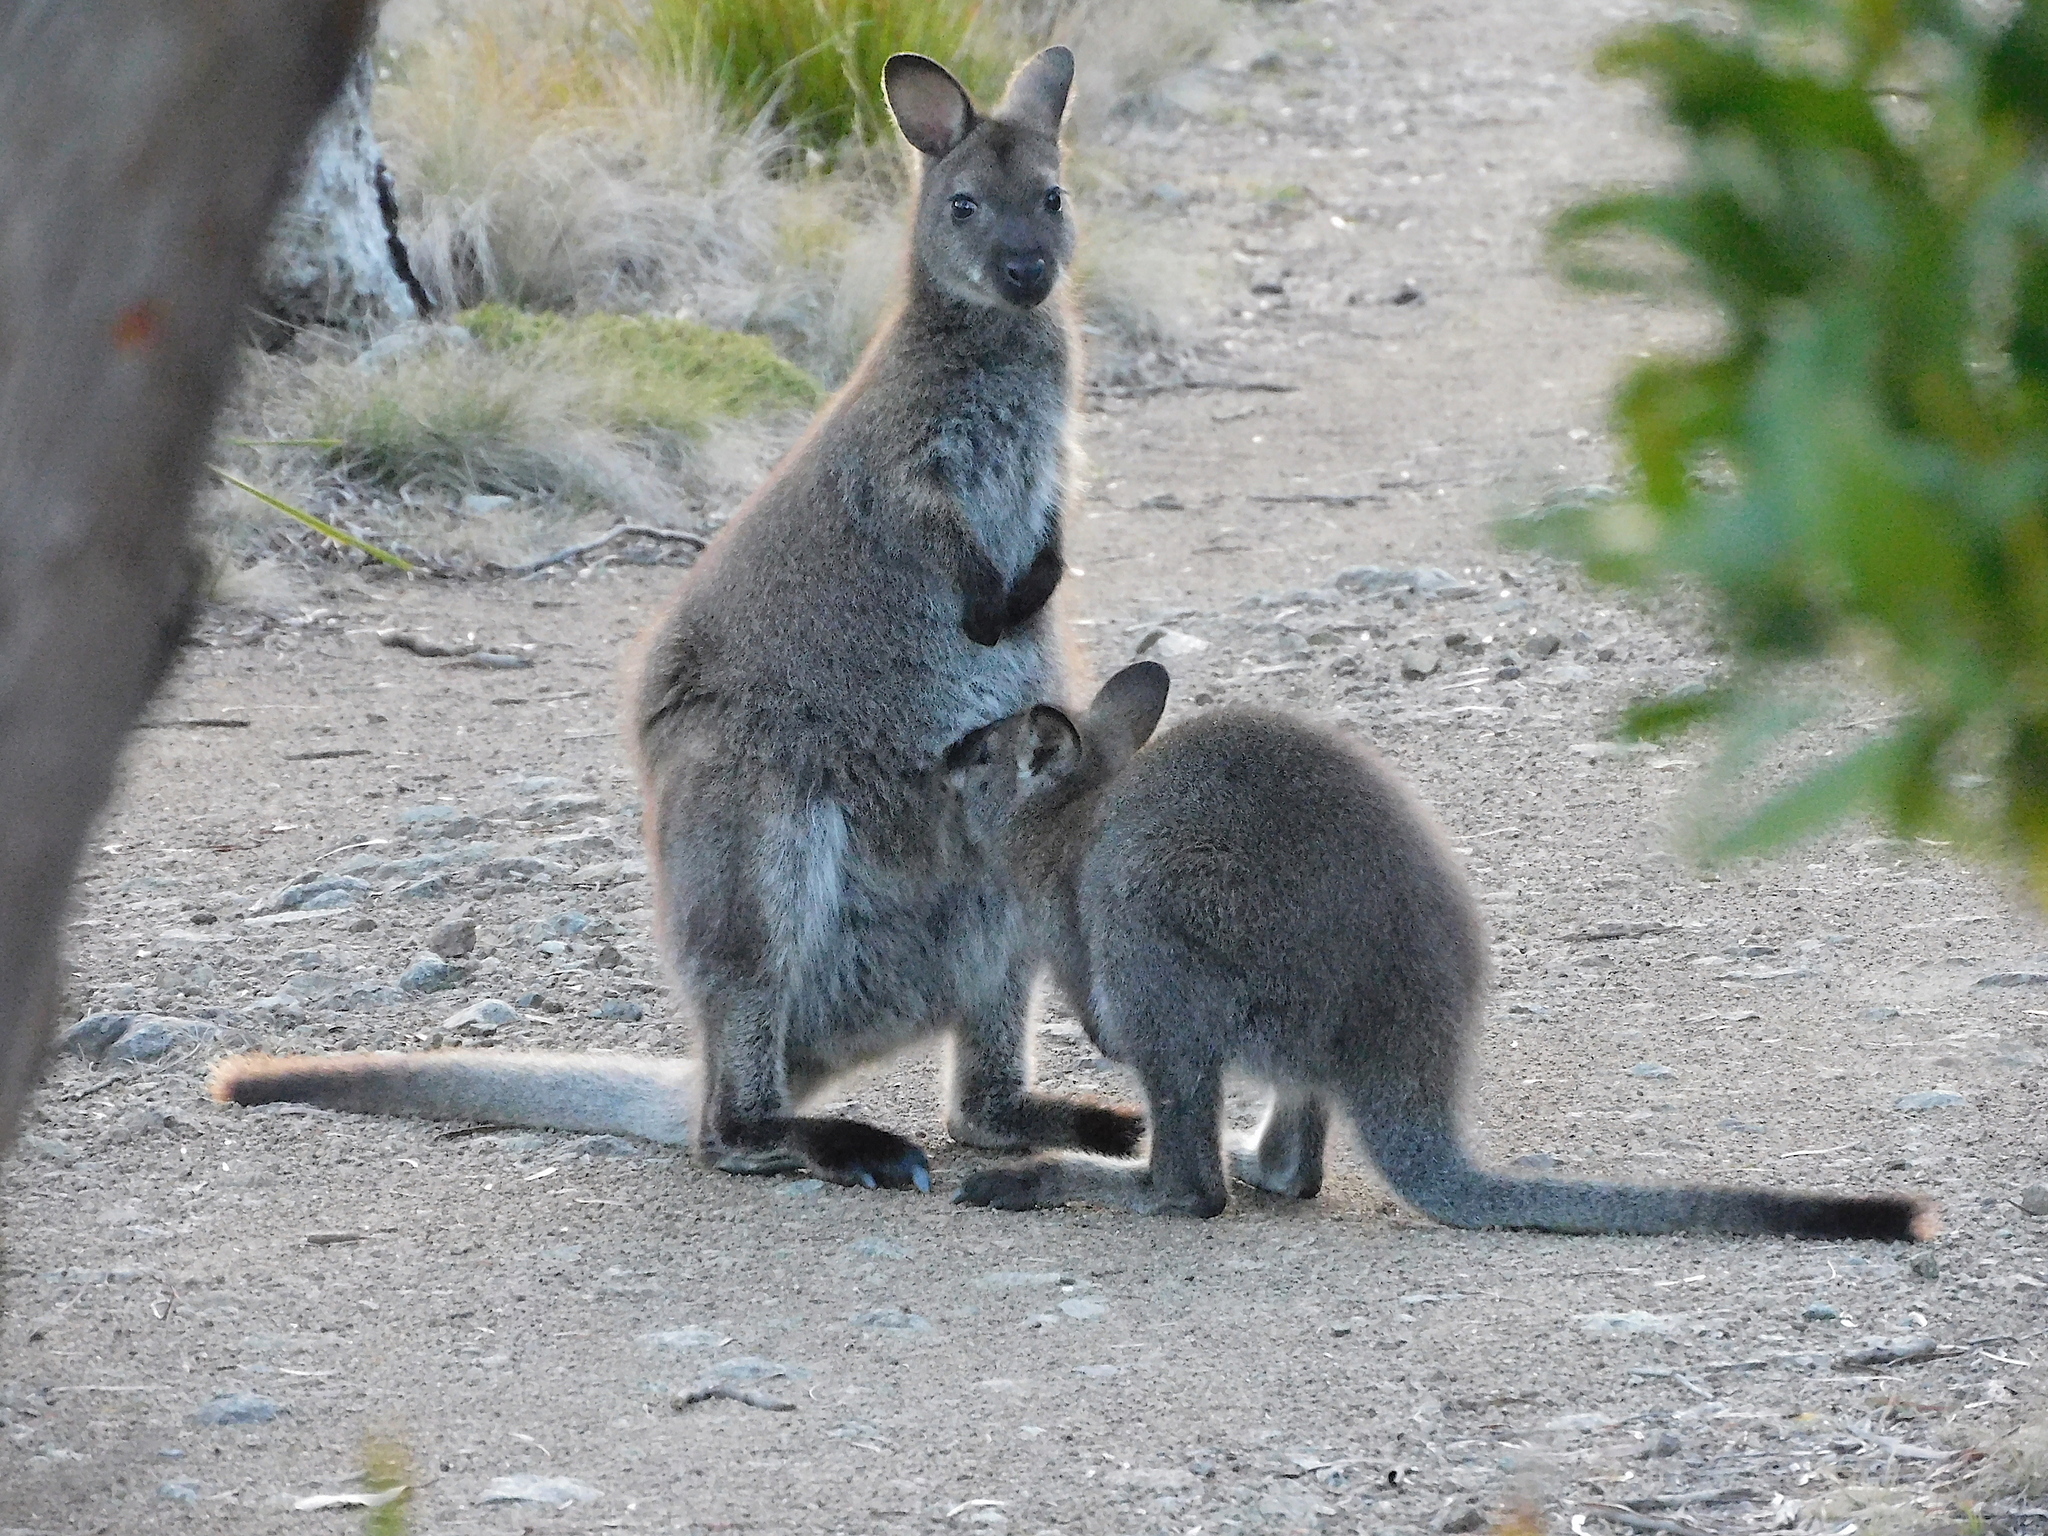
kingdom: Animalia
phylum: Chordata
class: Mammalia
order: Diprotodontia
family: Macropodidae
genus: Notamacropus
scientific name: Notamacropus rufogriseus
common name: Red-necked wallaby
